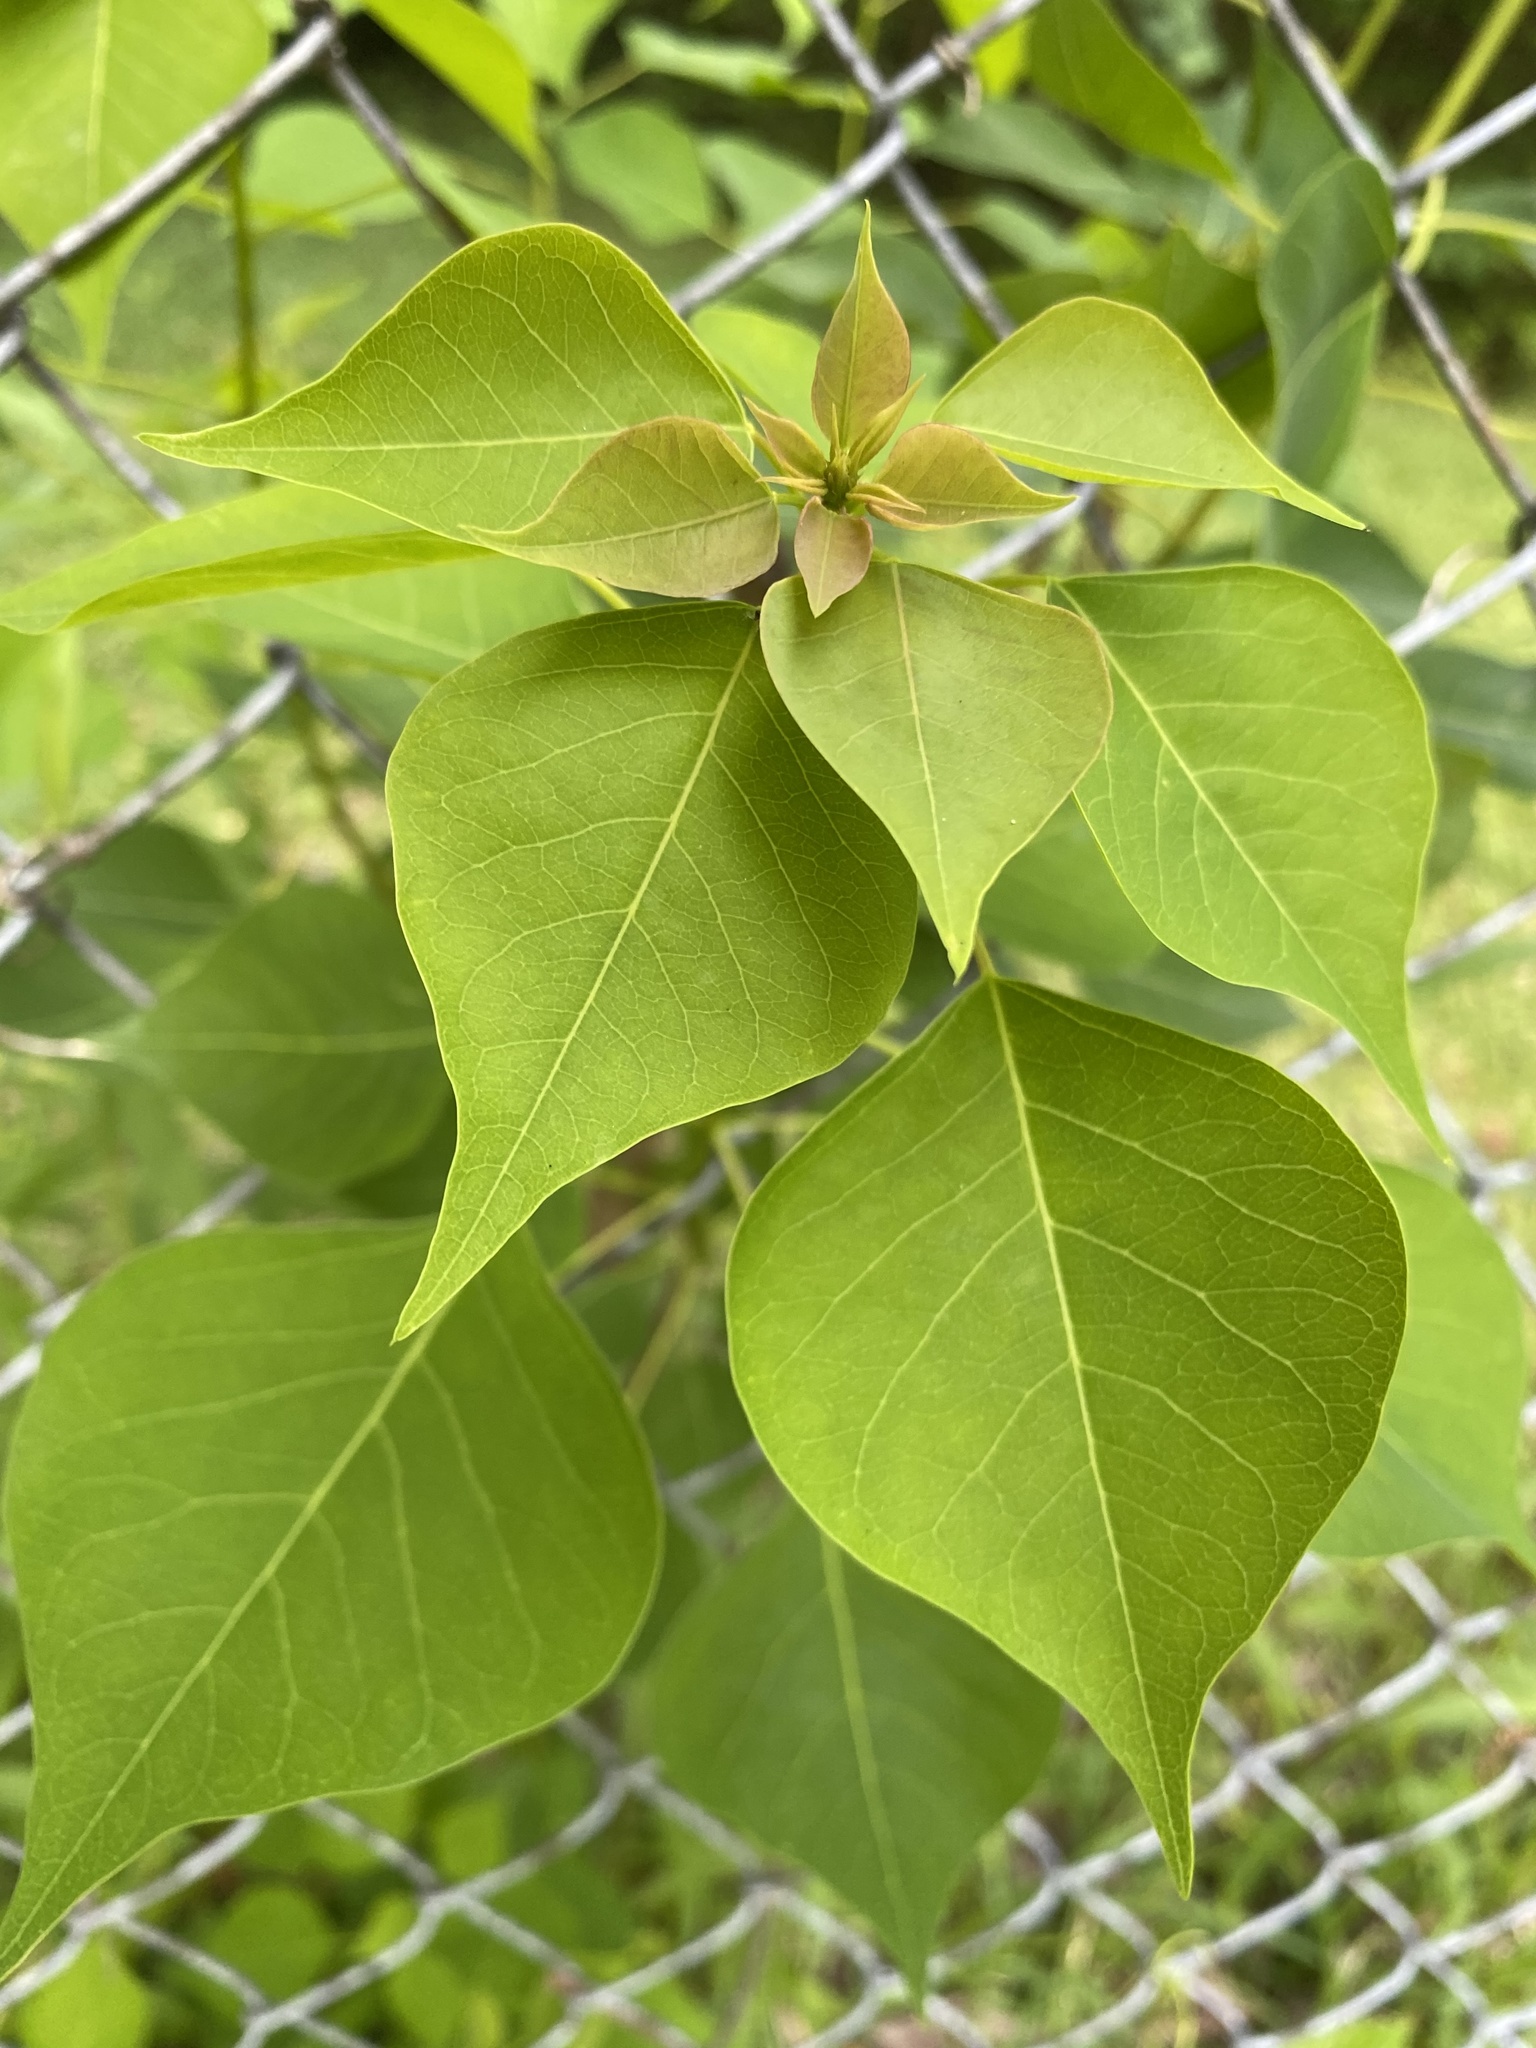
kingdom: Plantae
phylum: Tracheophyta
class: Magnoliopsida
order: Malpighiales
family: Euphorbiaceae
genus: Triadica
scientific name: Triadica sebifera
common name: Chinese tallow
